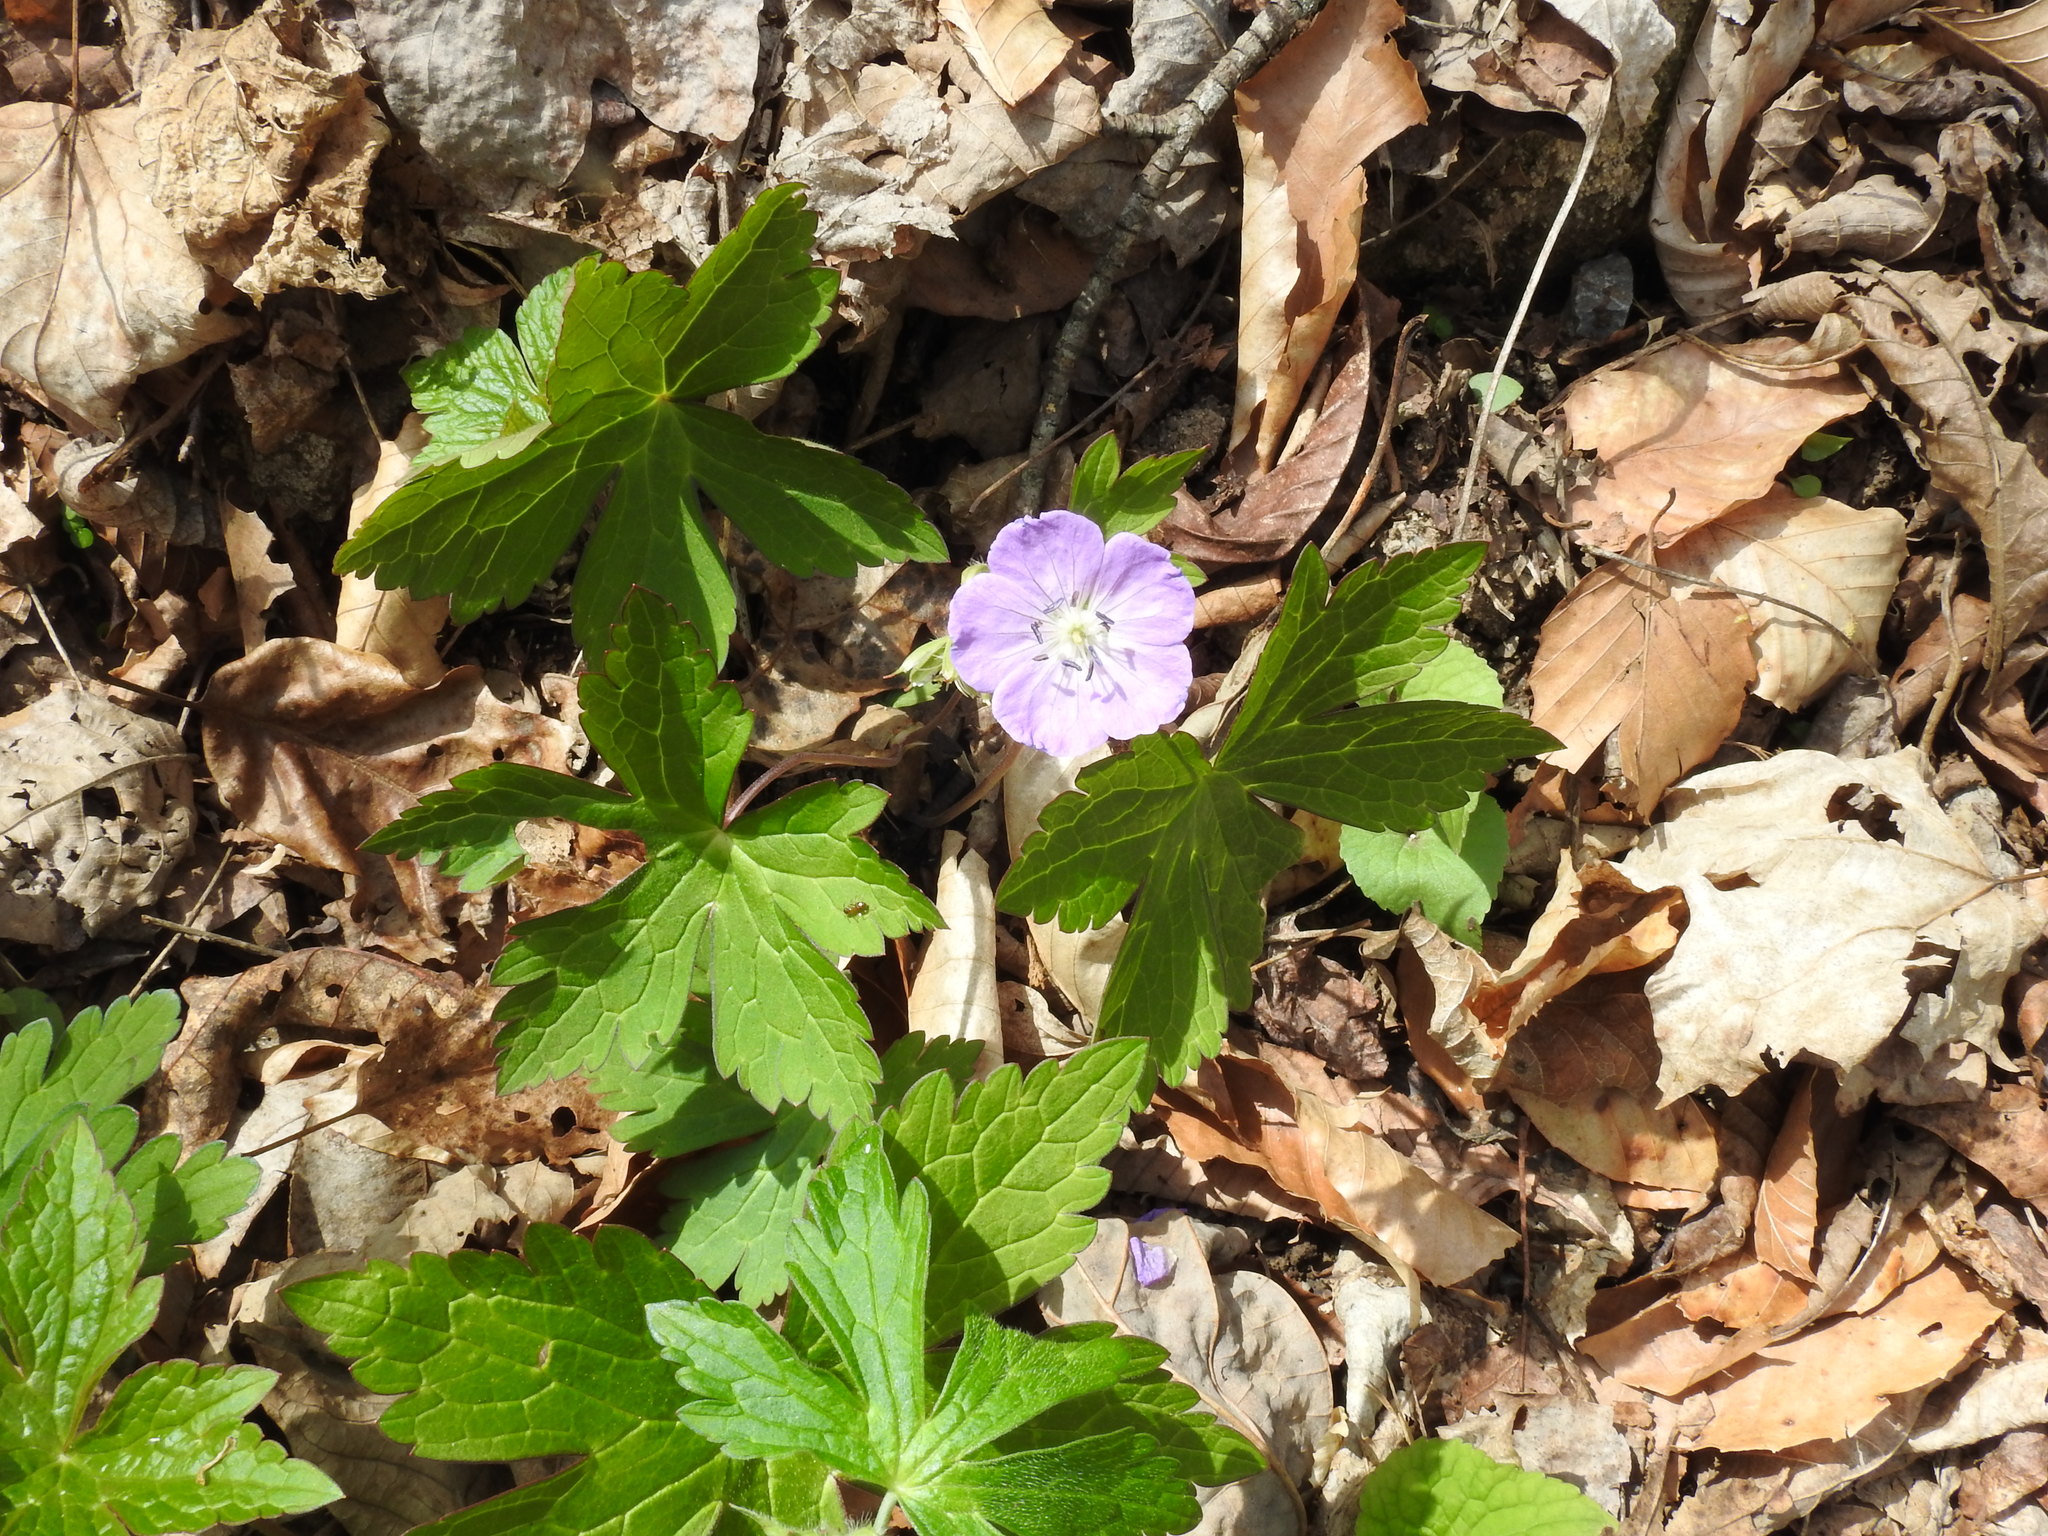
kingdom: Plantae
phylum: Tracheophyta
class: Magnoliopsida
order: Geraniales
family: Geraniaceae
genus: Geranium
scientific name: Geranium maculatum
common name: Spotted geranium
